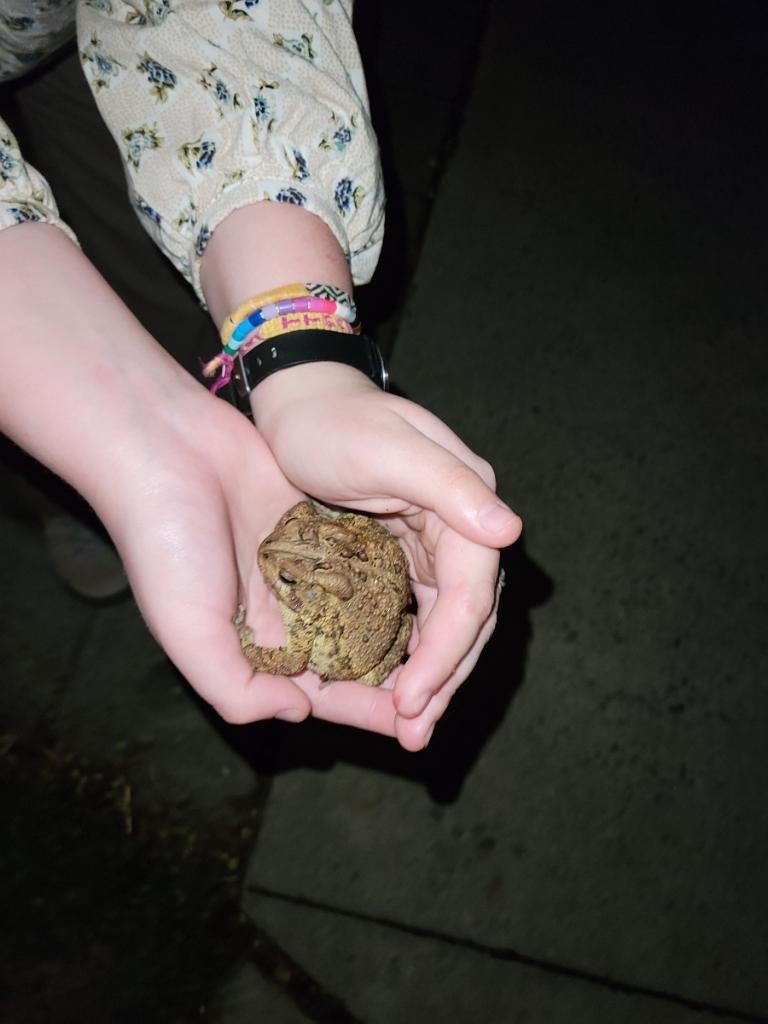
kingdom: Animalia
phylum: Chordata
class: Amphibia
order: Anura
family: Bufonidae
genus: Anaxyrus
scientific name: Anaxyrus americanus
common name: American toad
